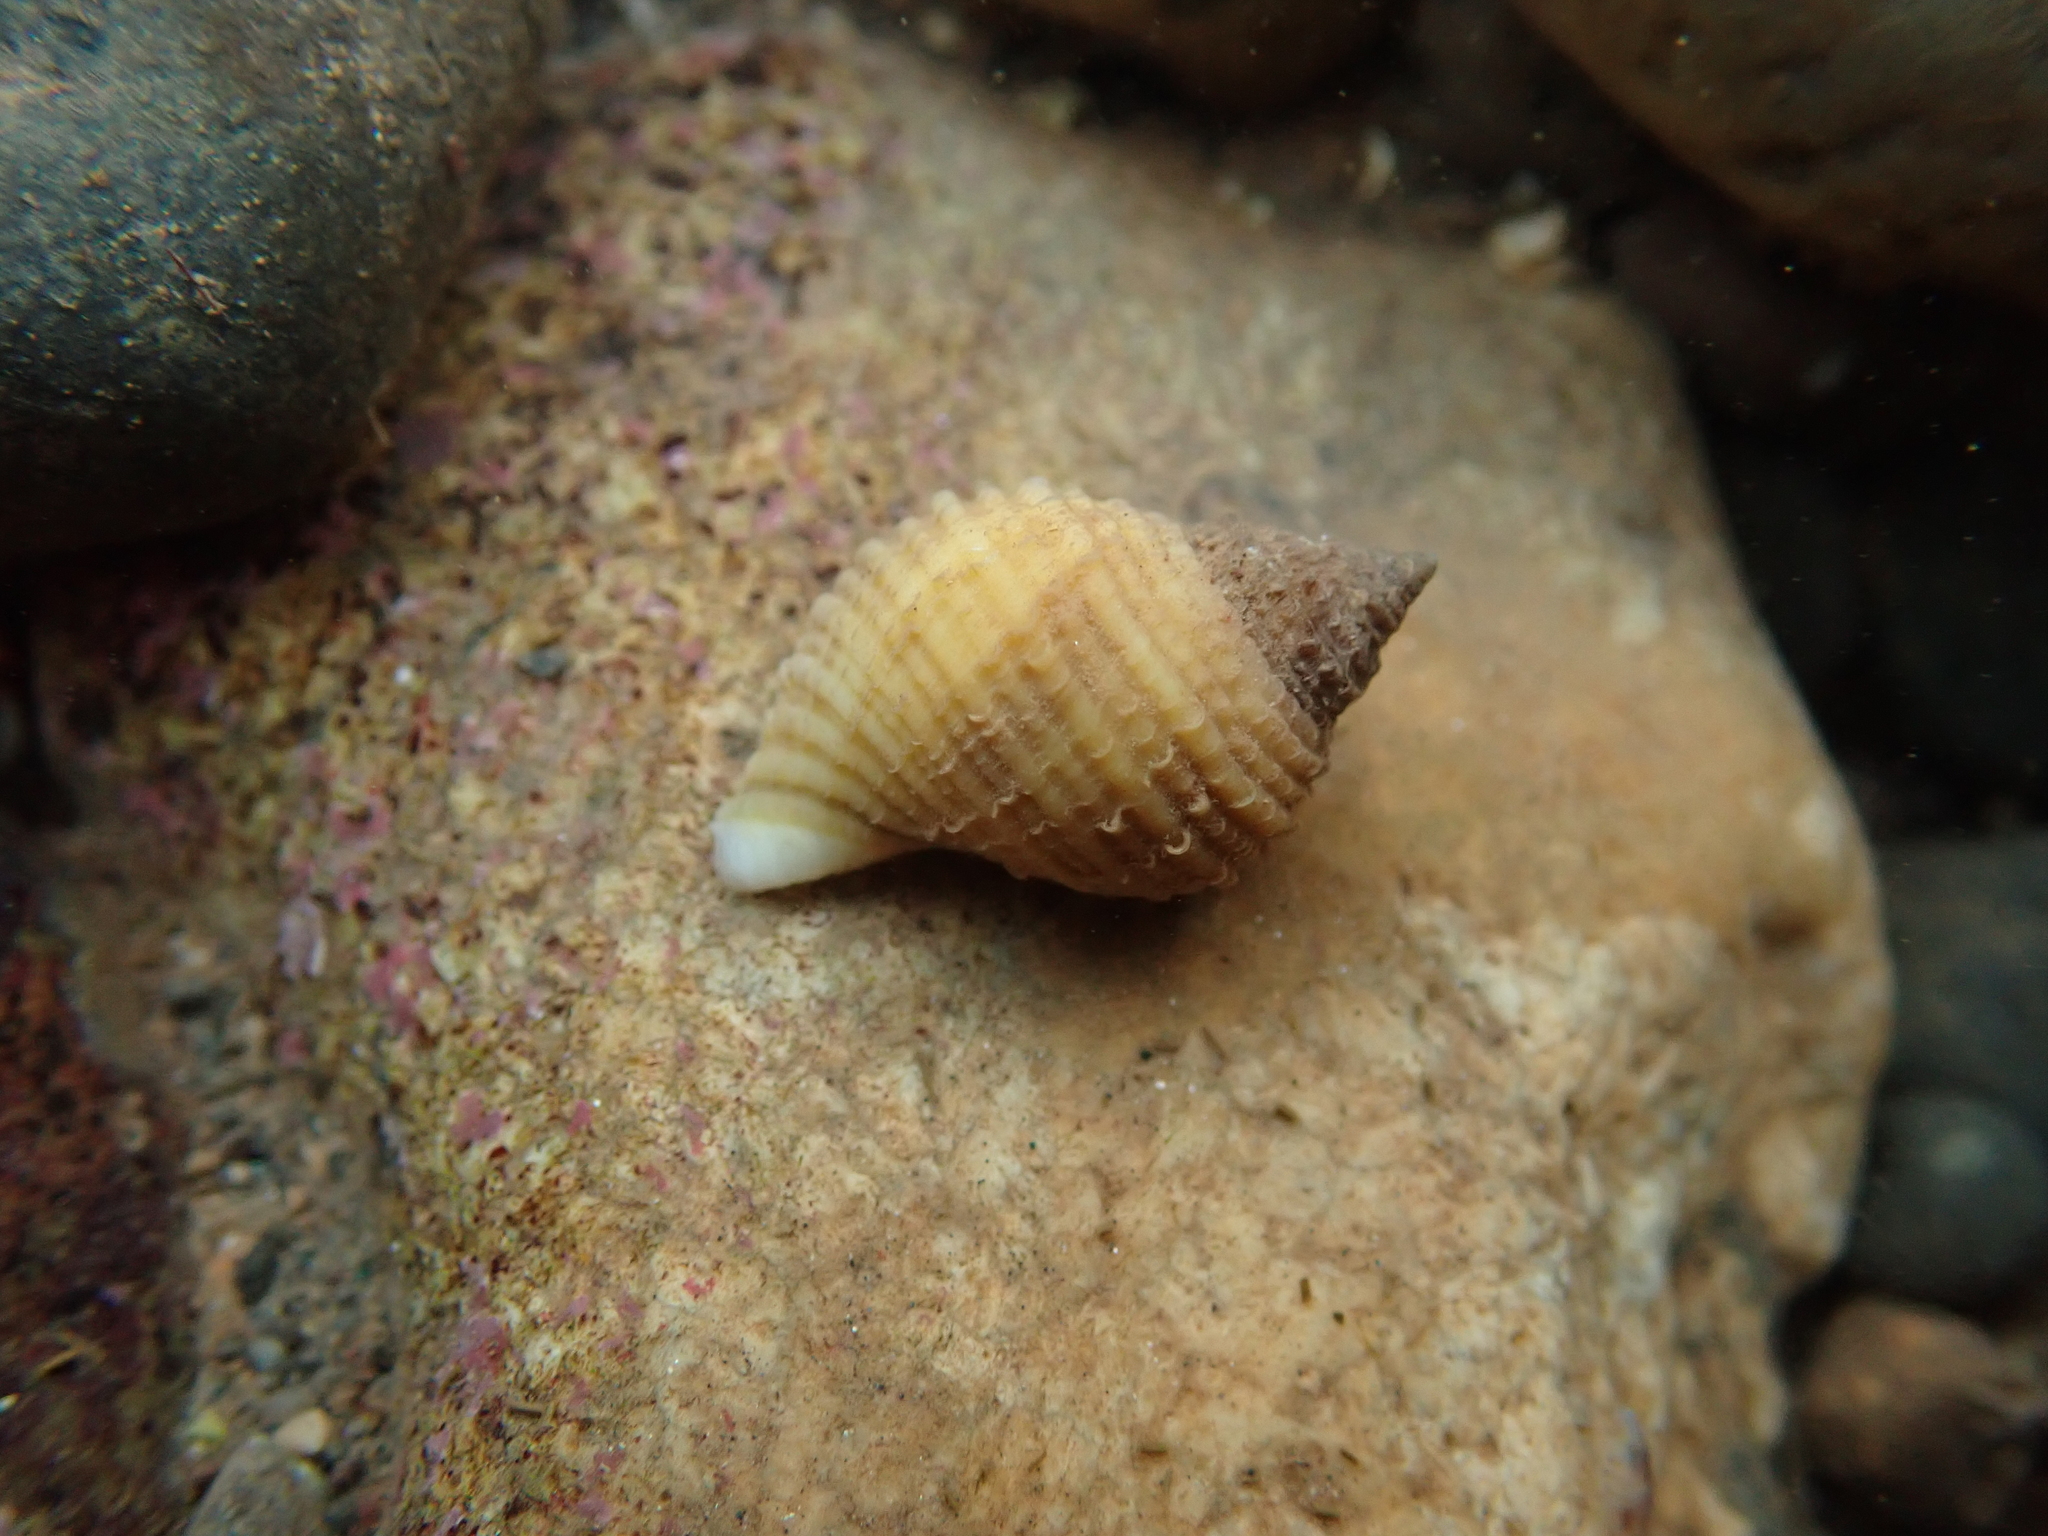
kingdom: Animalia
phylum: Mollusca
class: Gastropoda
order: Neogastropoda
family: Muricidae
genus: Nucella
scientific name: Nucella lapillus
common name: Dog whelk
